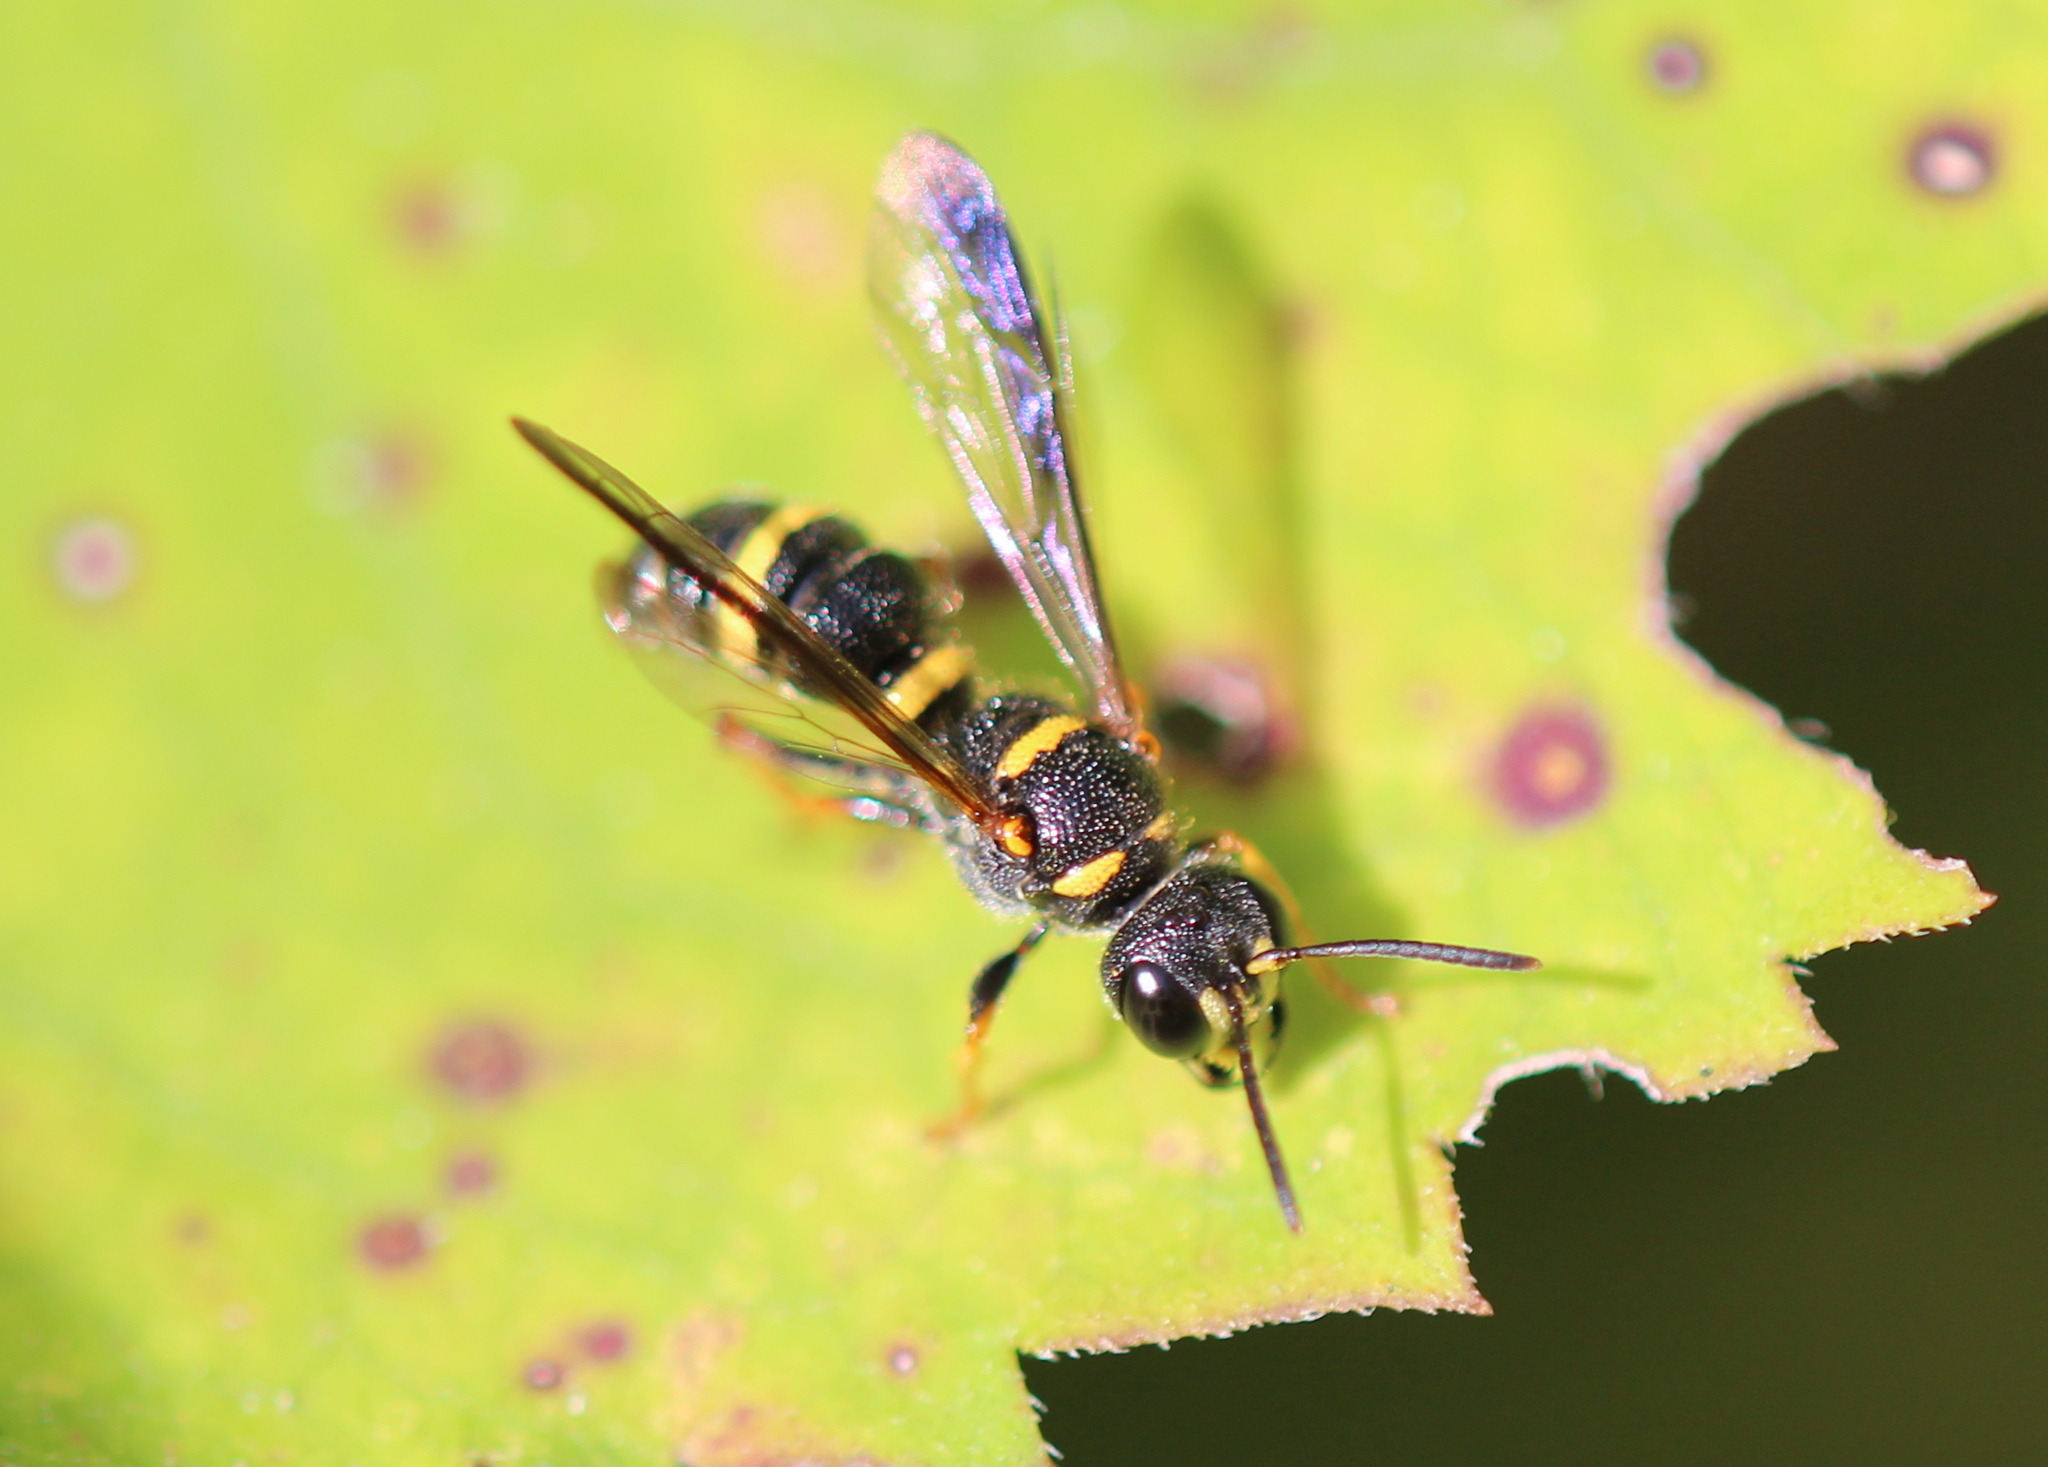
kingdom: Animalia
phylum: Arthropoda
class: Insecta
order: Hymenoptera
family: Crabronidae
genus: Cerceris
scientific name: Cerceris insolita
